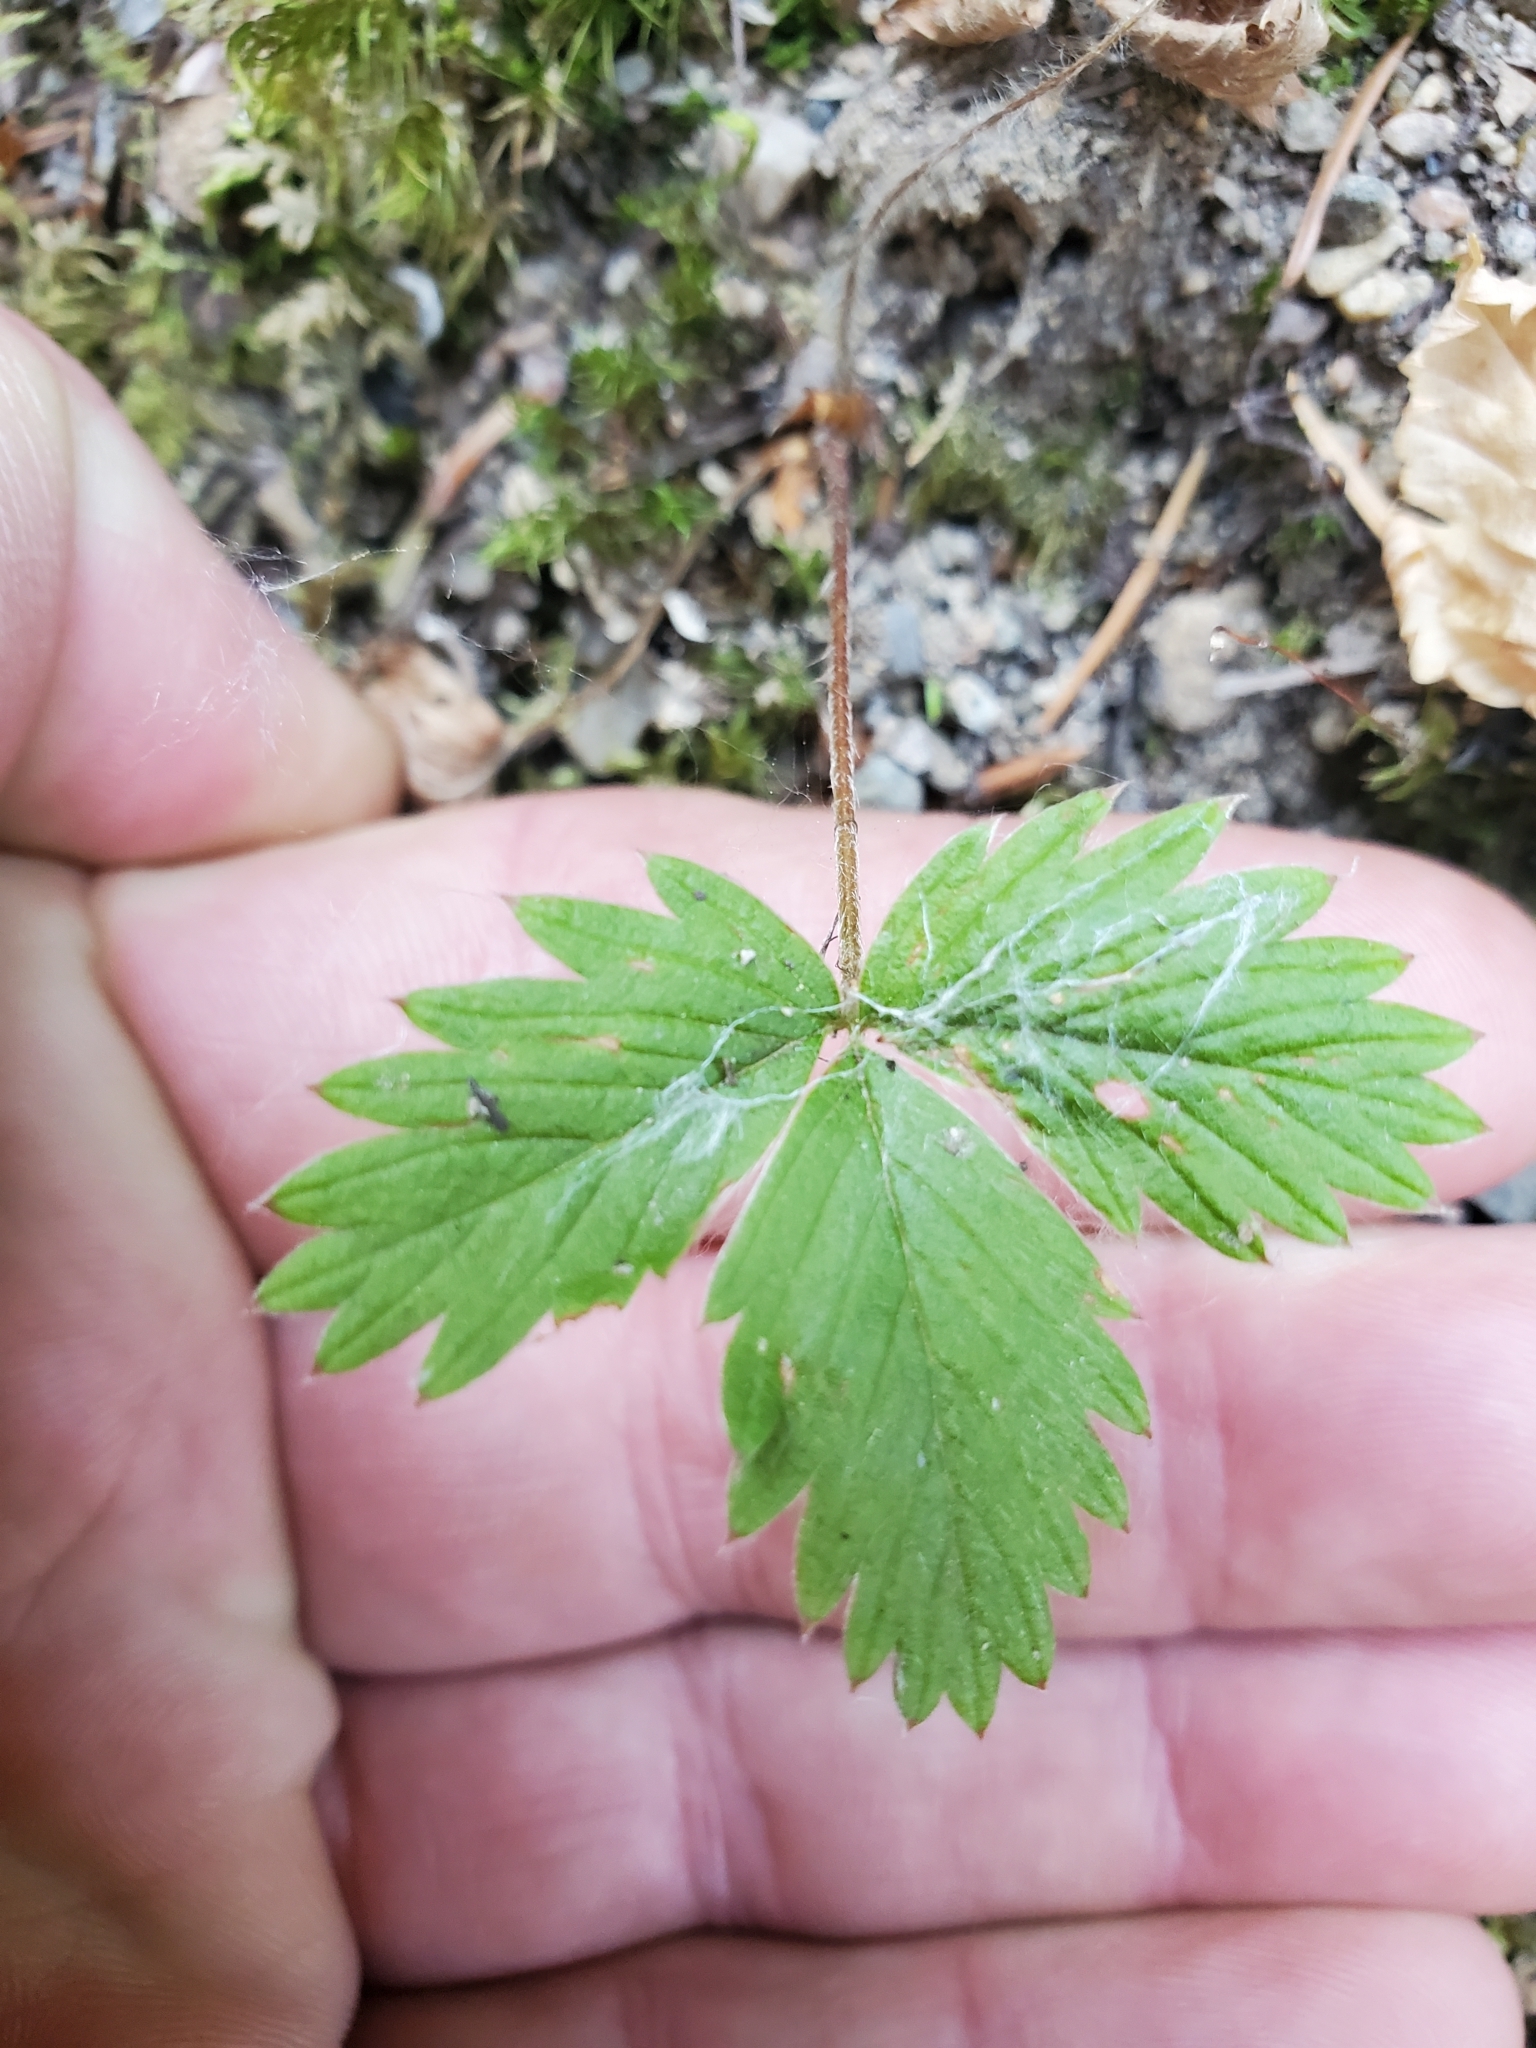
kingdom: Plantae
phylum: Tracheophyta
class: Magnoliopsida
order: Rosales
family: Rosaceae
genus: Fragaria
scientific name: Fragaria vesca
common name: Wild strawberry
